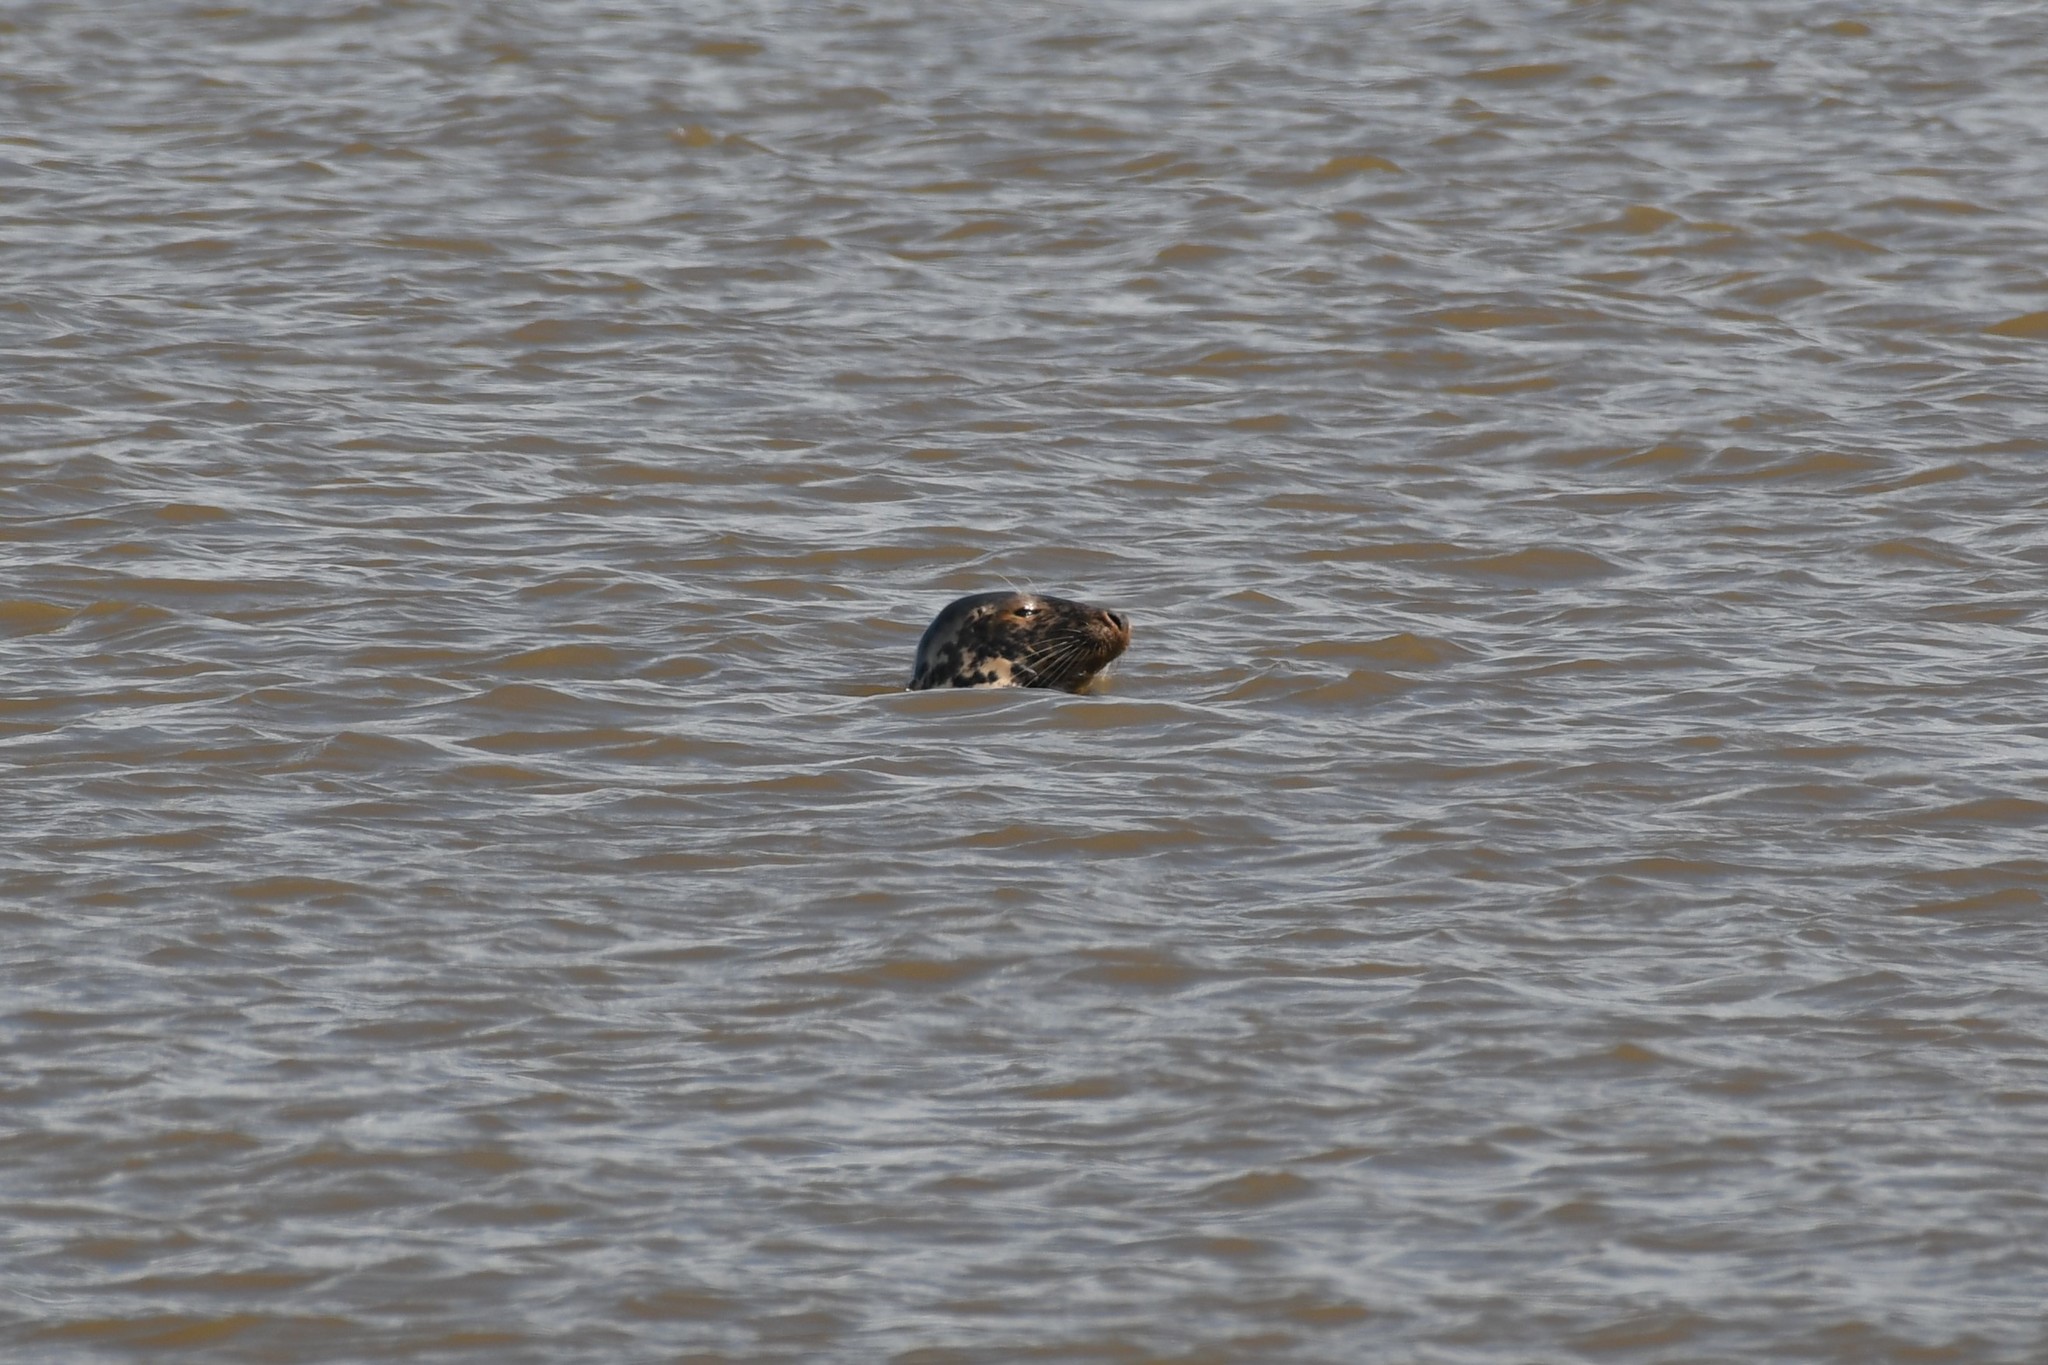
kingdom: Animalia
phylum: Chordata
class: Mammalia
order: Carnivora
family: Phocidae
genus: Halichoerus
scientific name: Halichoerus grypus
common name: Grey seal
